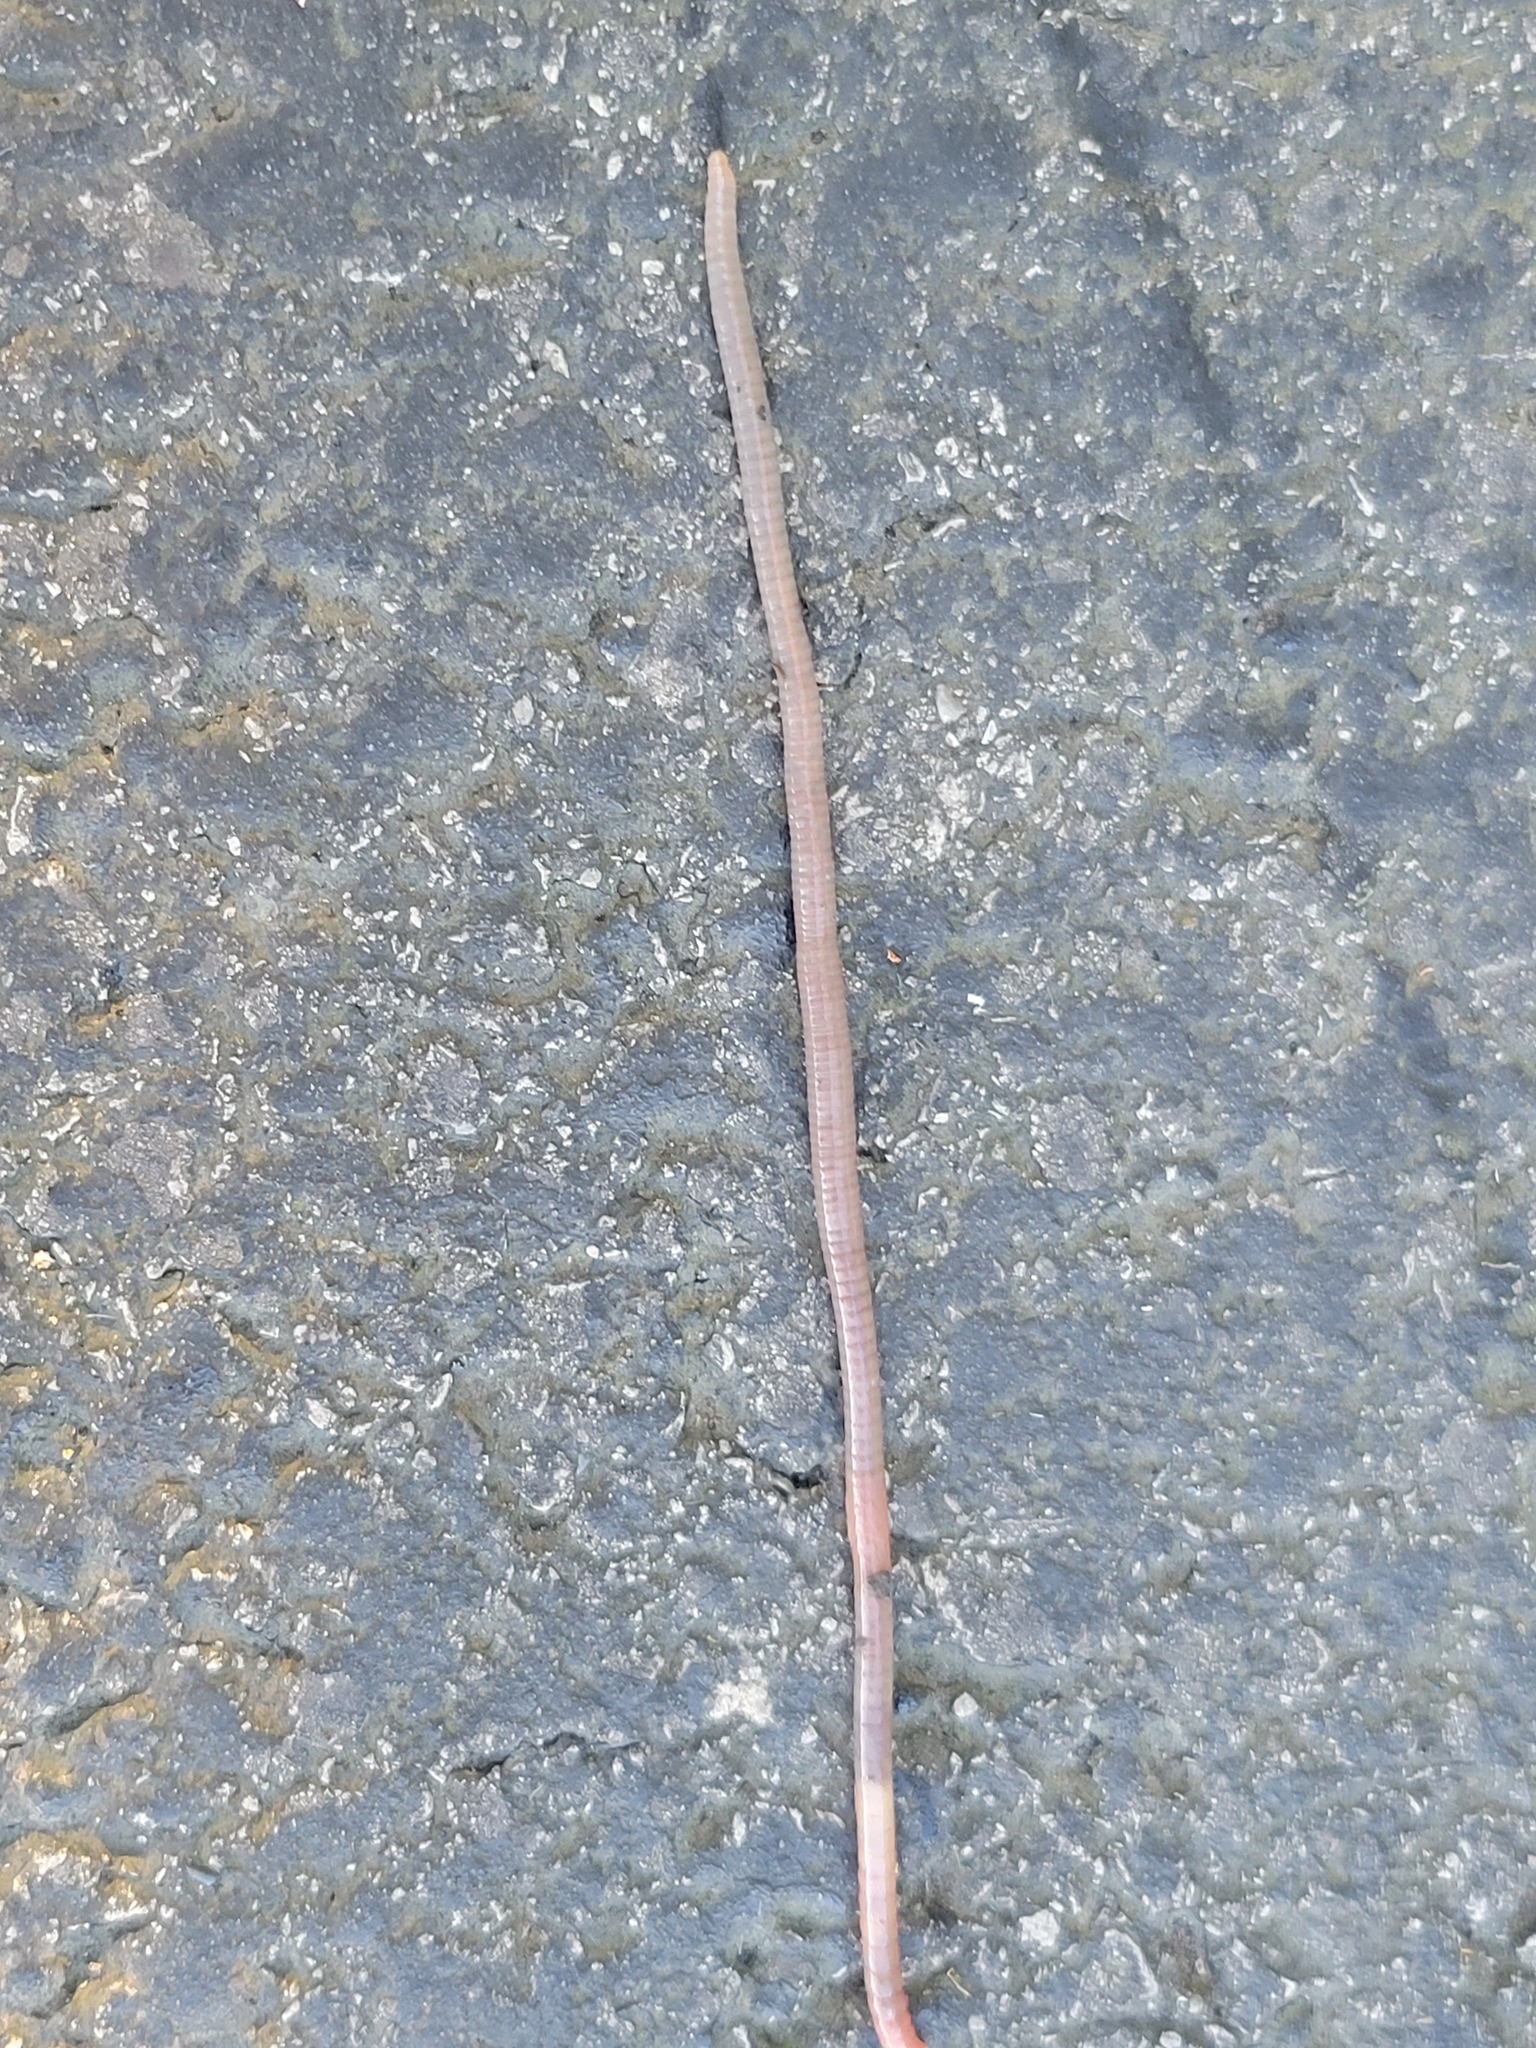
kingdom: Animalia
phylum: Annelida
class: Clitellata
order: Crassiclitellata
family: Lumbricidae
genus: Lumbricus
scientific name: Lumbricus terrestris
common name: Common earthworm
